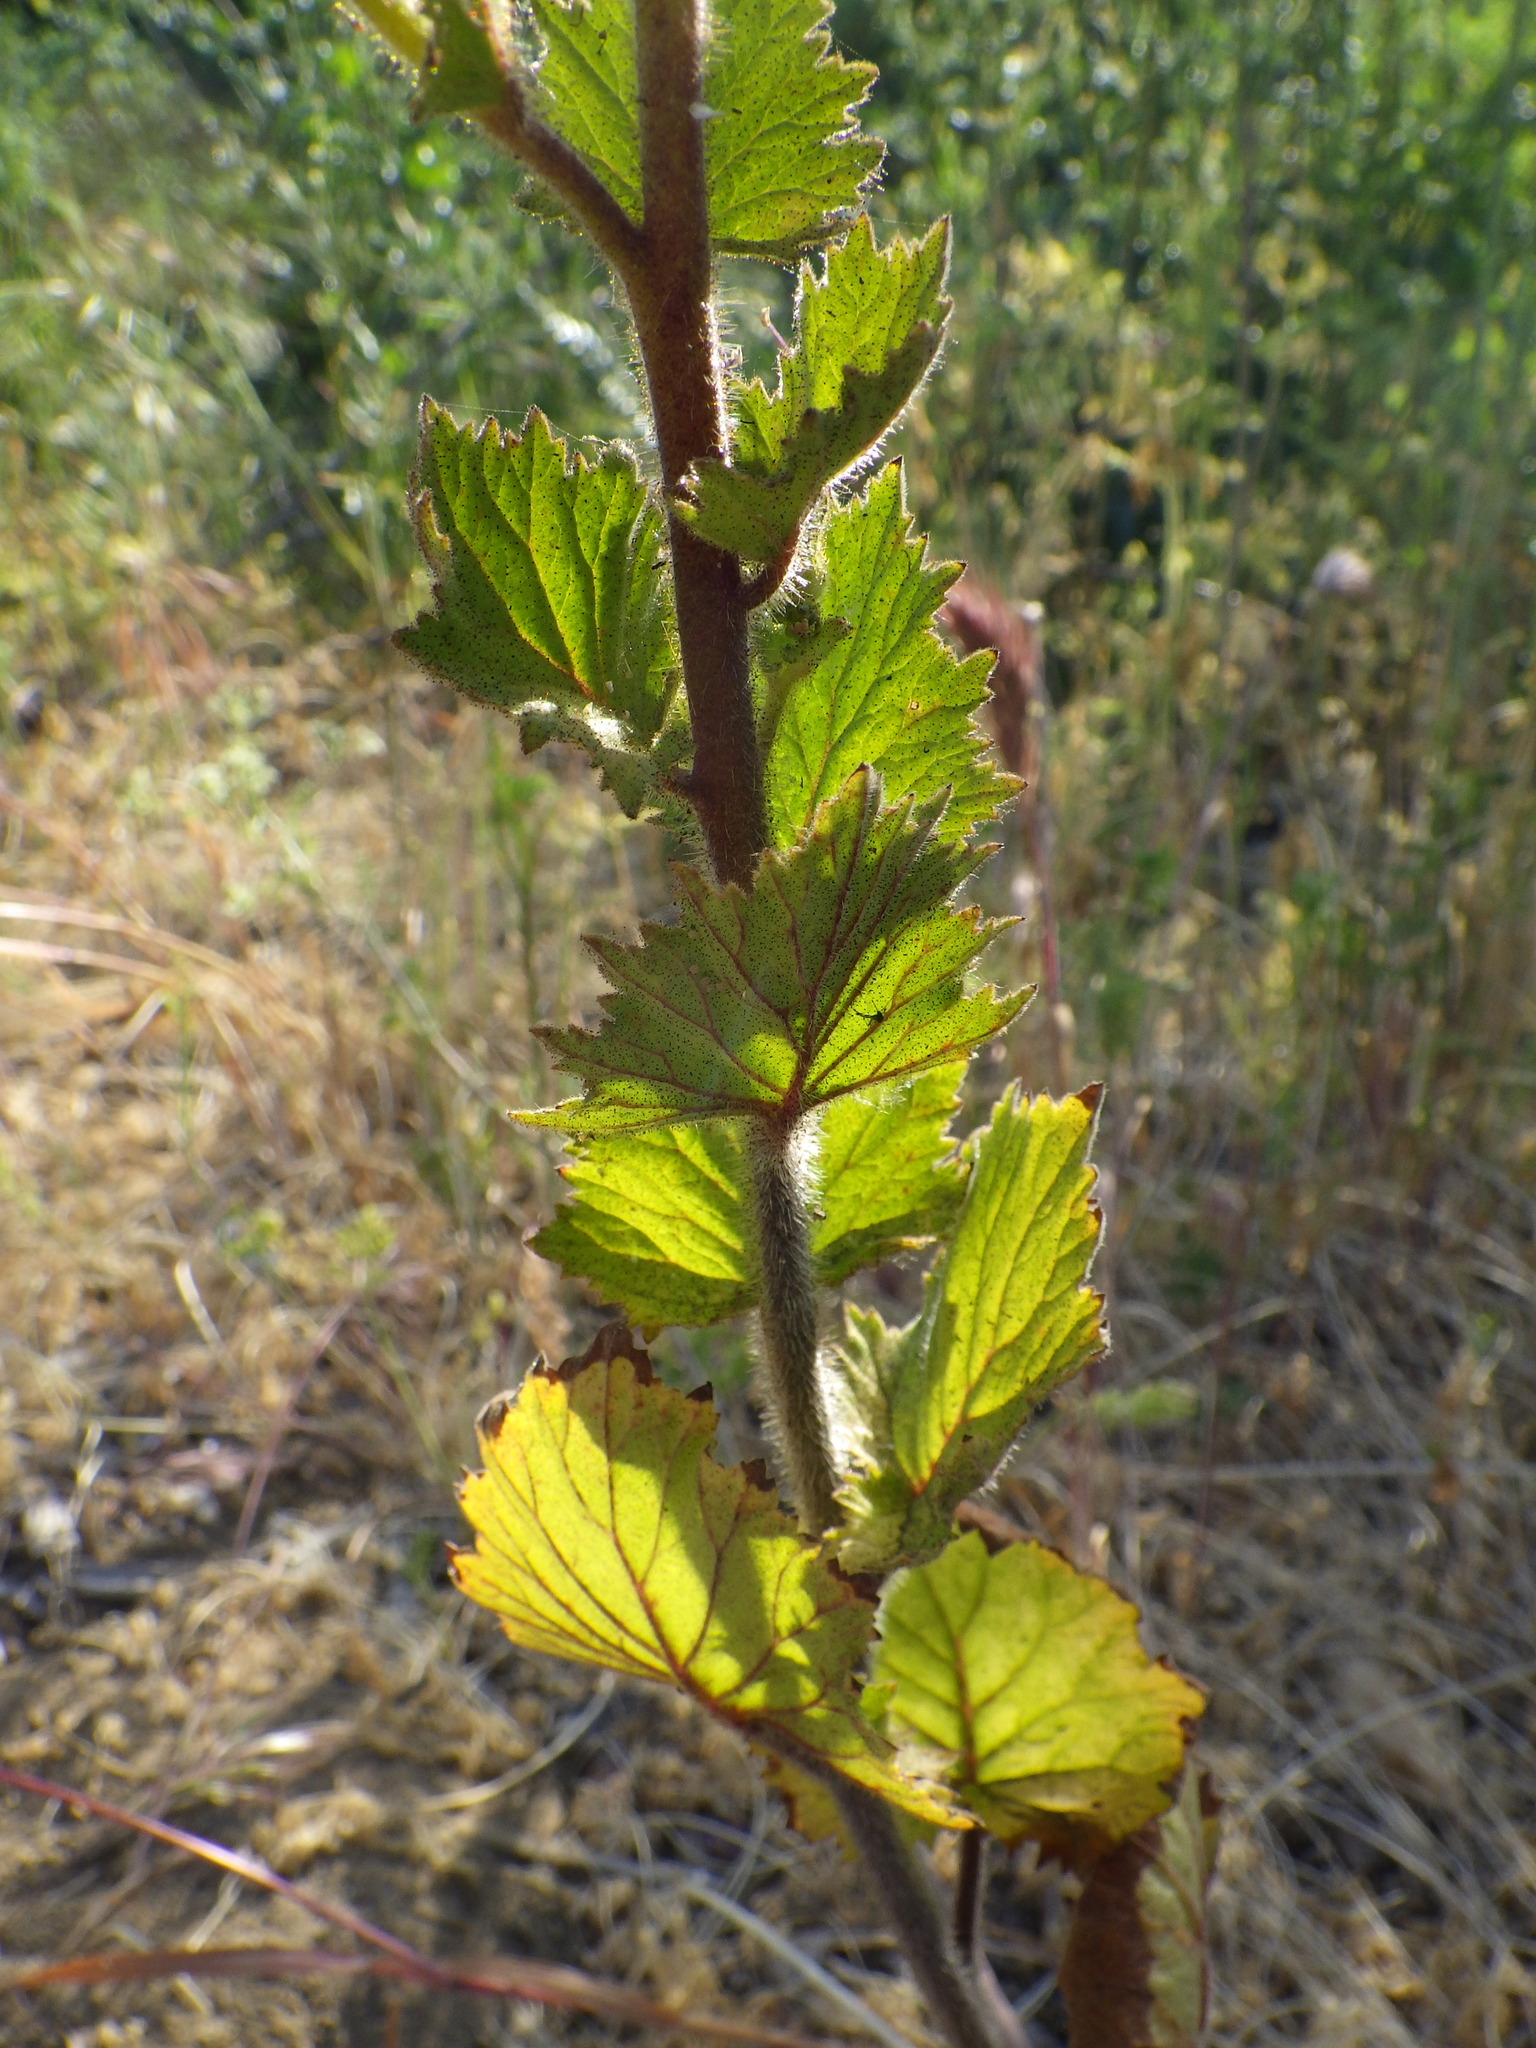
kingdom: Plantae
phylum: Tracheophyta
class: Magnoliopsida
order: Boraginales
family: Hydrophyllaceae
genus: Phacelia
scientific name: Phacelia grandiflora
